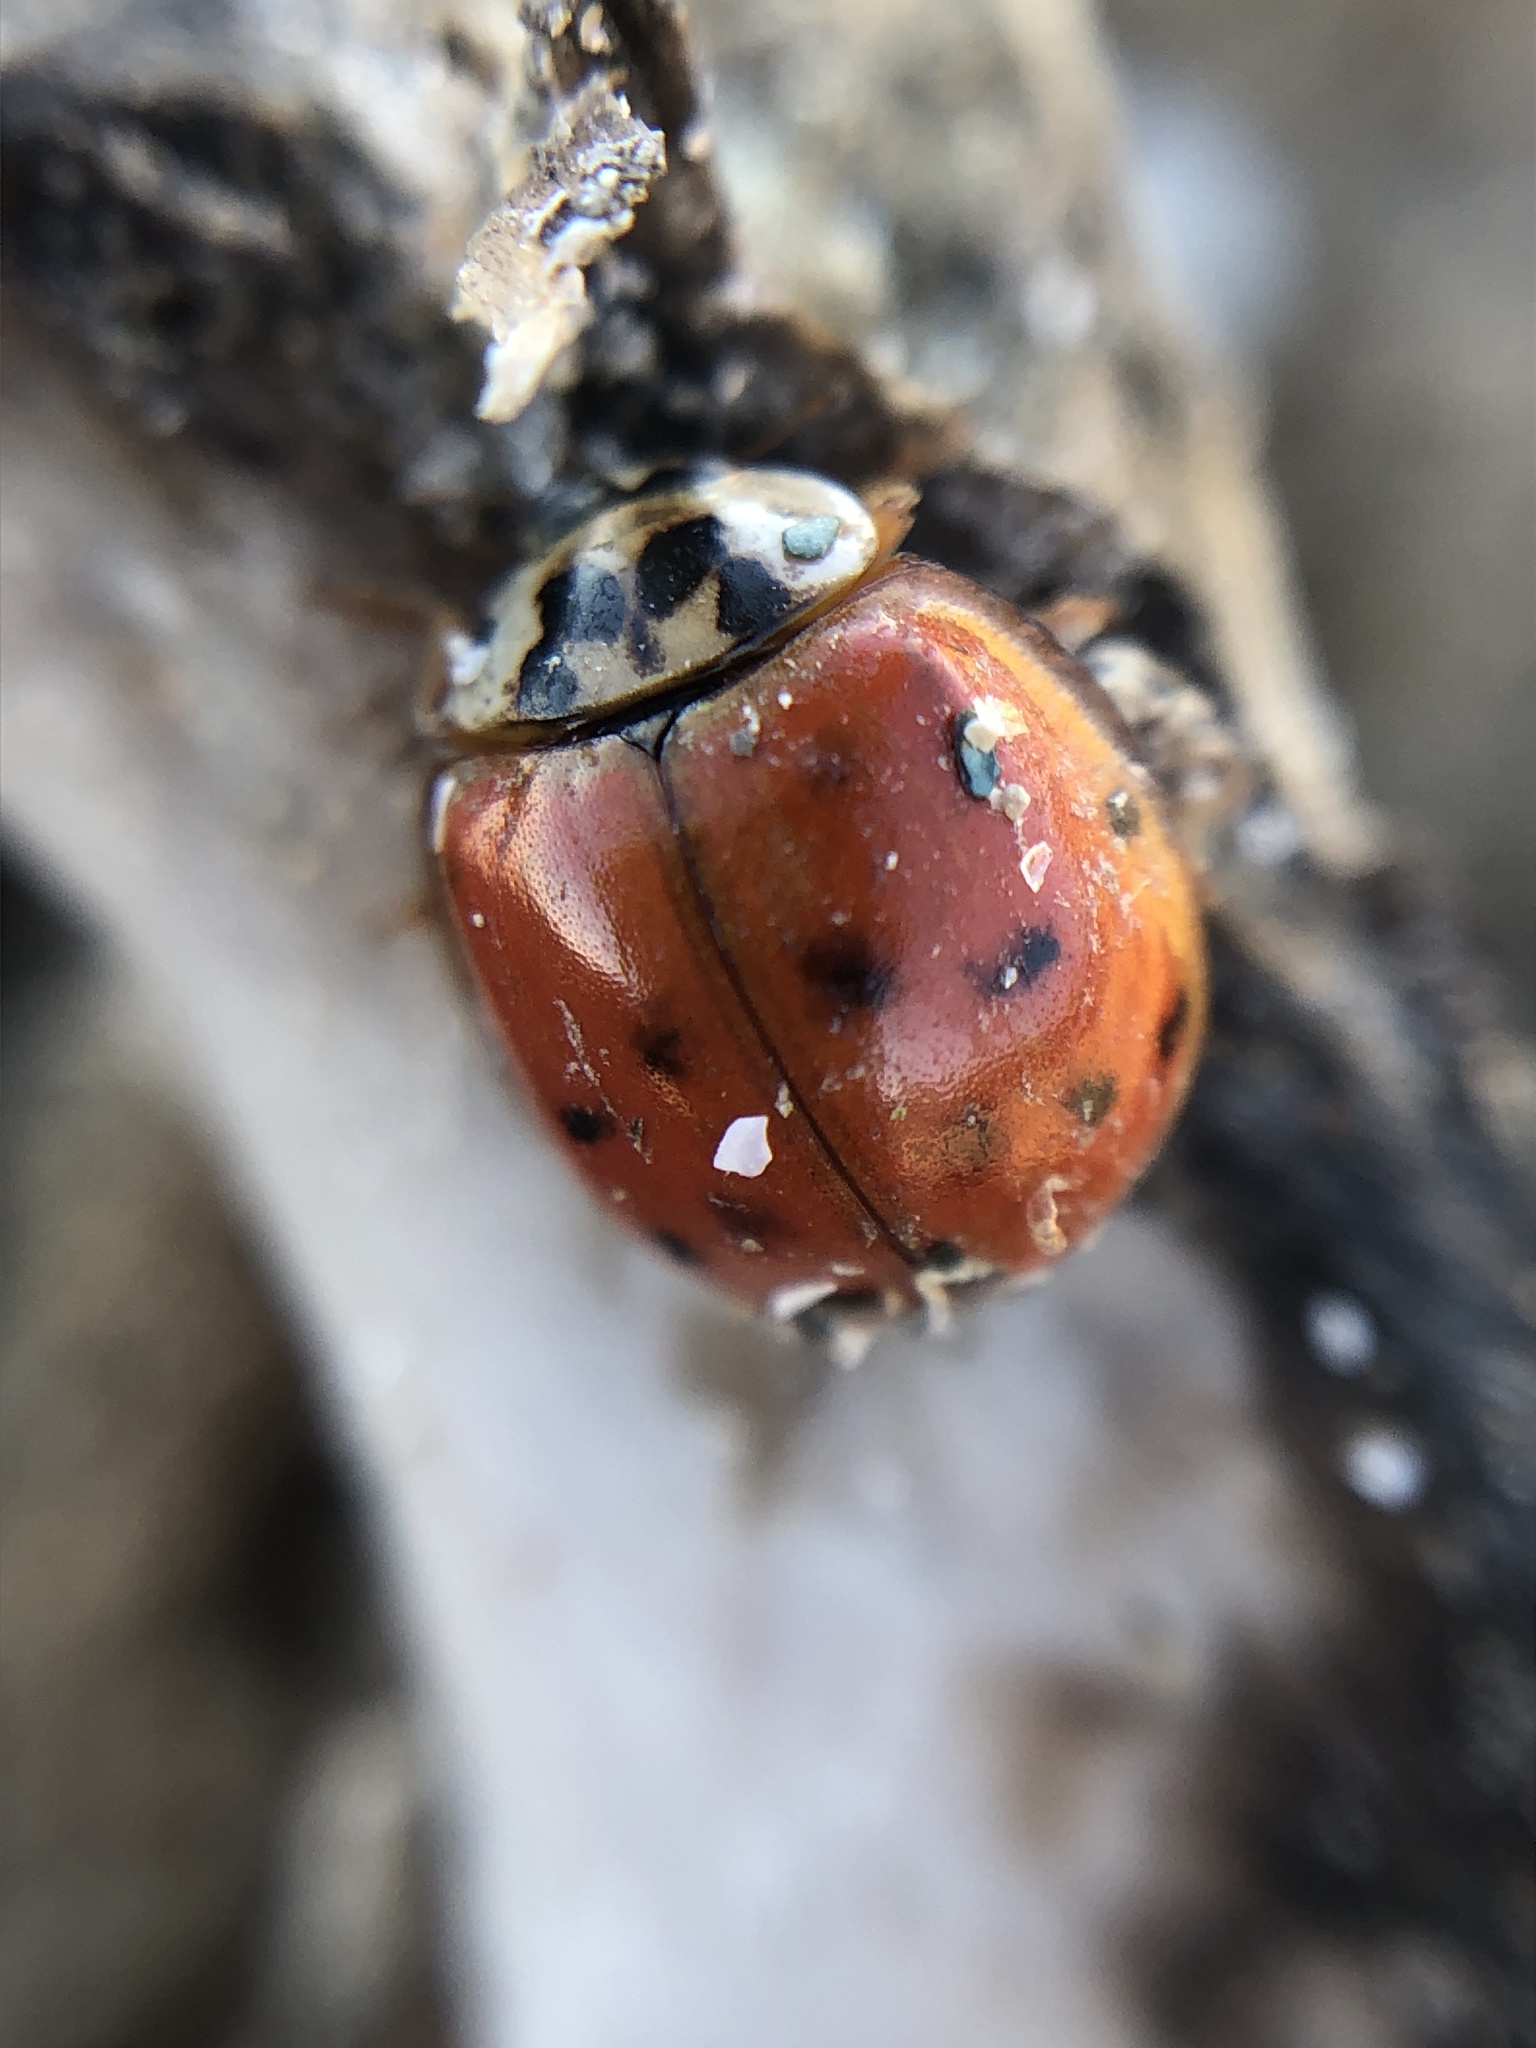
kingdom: Animalia
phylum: Arthropoda
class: Insecta
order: Coleoptera
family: Coccinellidae
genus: Harmonia
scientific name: Harmonia axyridis
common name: Harlequin ladybird
